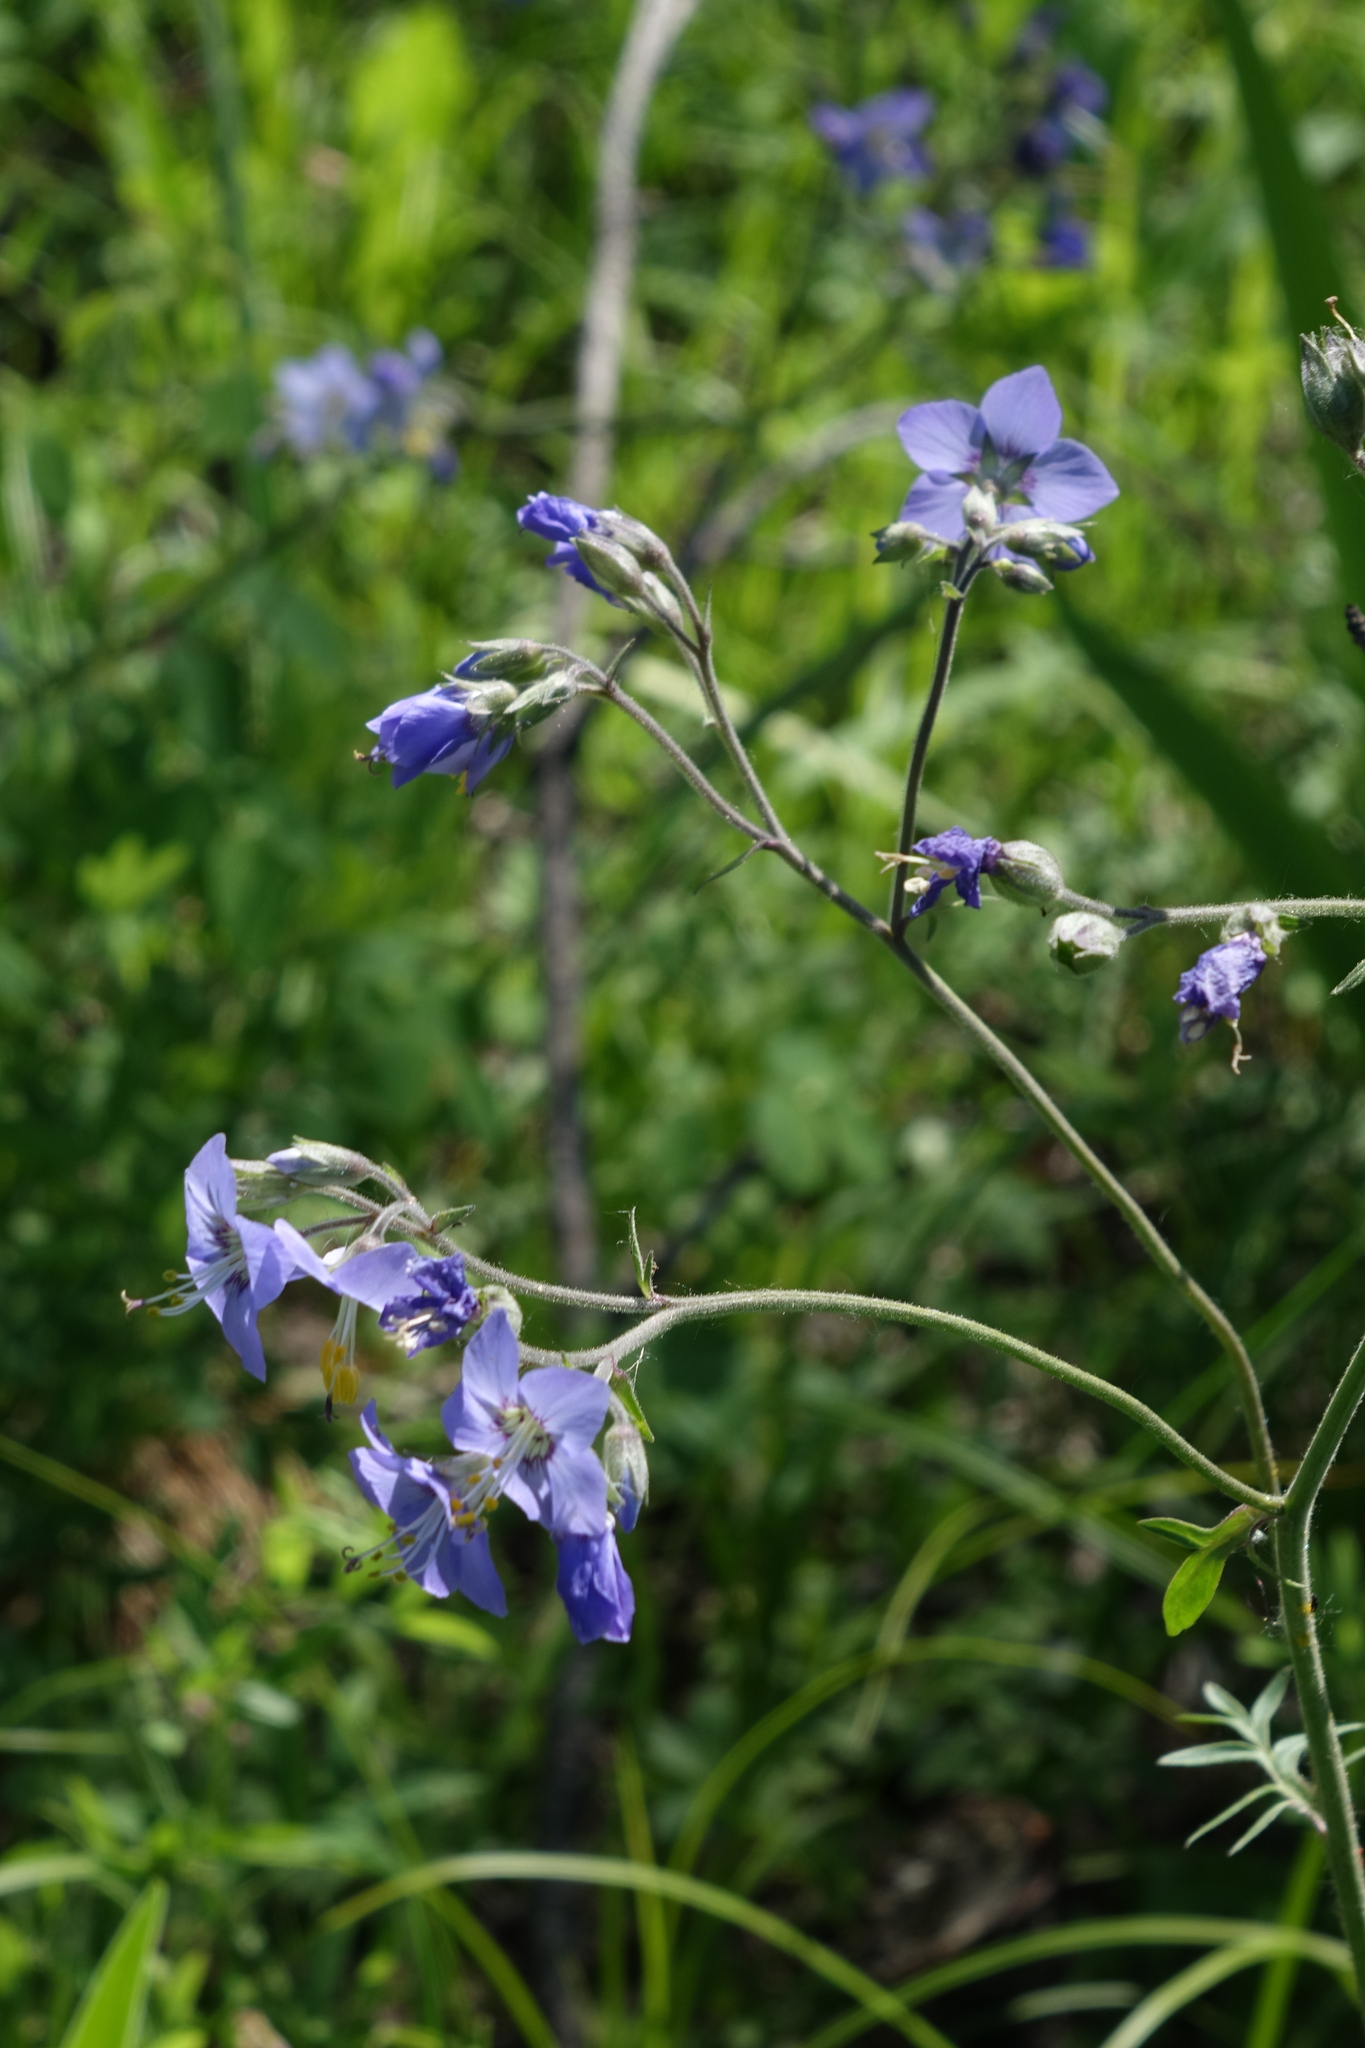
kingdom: Plantae
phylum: Tracheophyta
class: Magnoliopsida
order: Ericales
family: Polemoniaceae
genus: Polemonium
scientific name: Polemonium acutiflorum
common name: Tall jacob's-ladder
